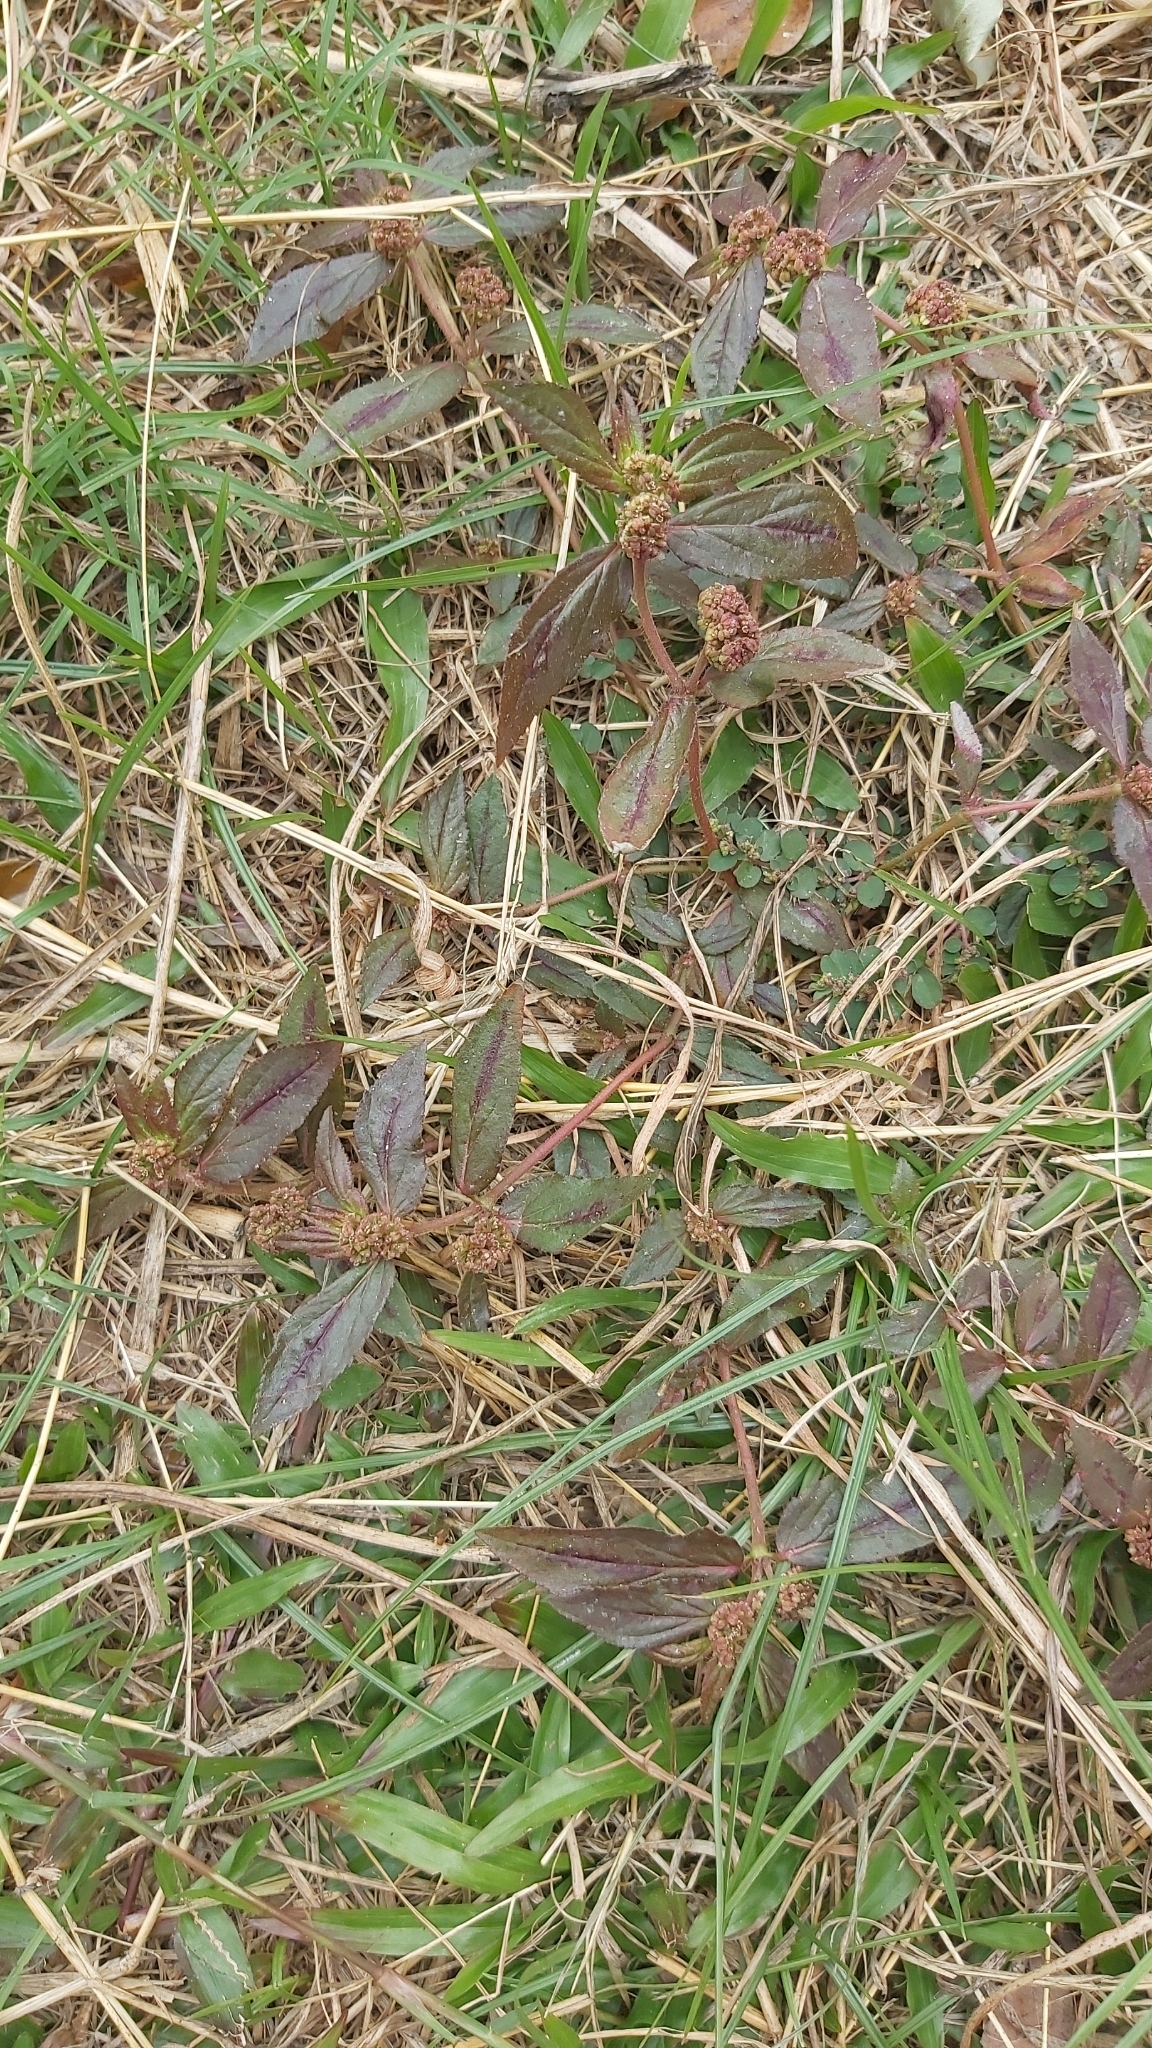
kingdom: Plantae
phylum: Tracheophyta
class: Magnoliopsida
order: Malpighiales
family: Euphorbiaceae
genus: Euphorbia
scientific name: Euphorbia hirta
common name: Pillpod sandmat
